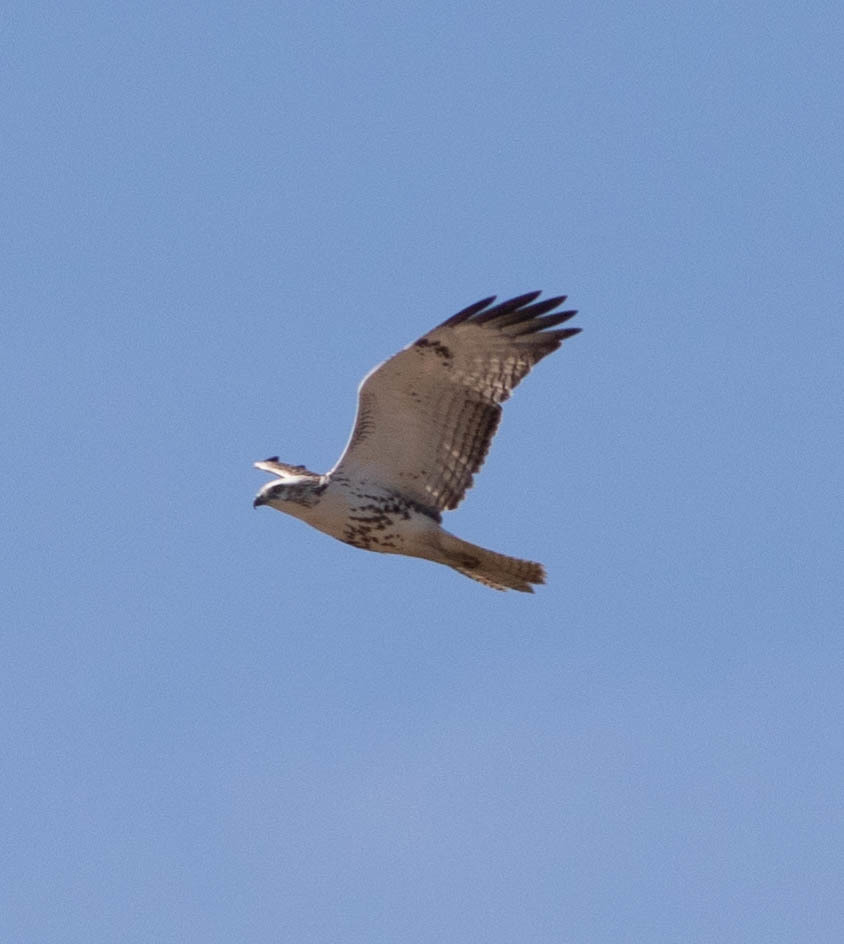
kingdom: Animalia
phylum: Chordata
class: Aves
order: Accipitriformes
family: Accipitridae
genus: Buteo
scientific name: Buteo jamaicensis
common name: Red-tailed hawk
